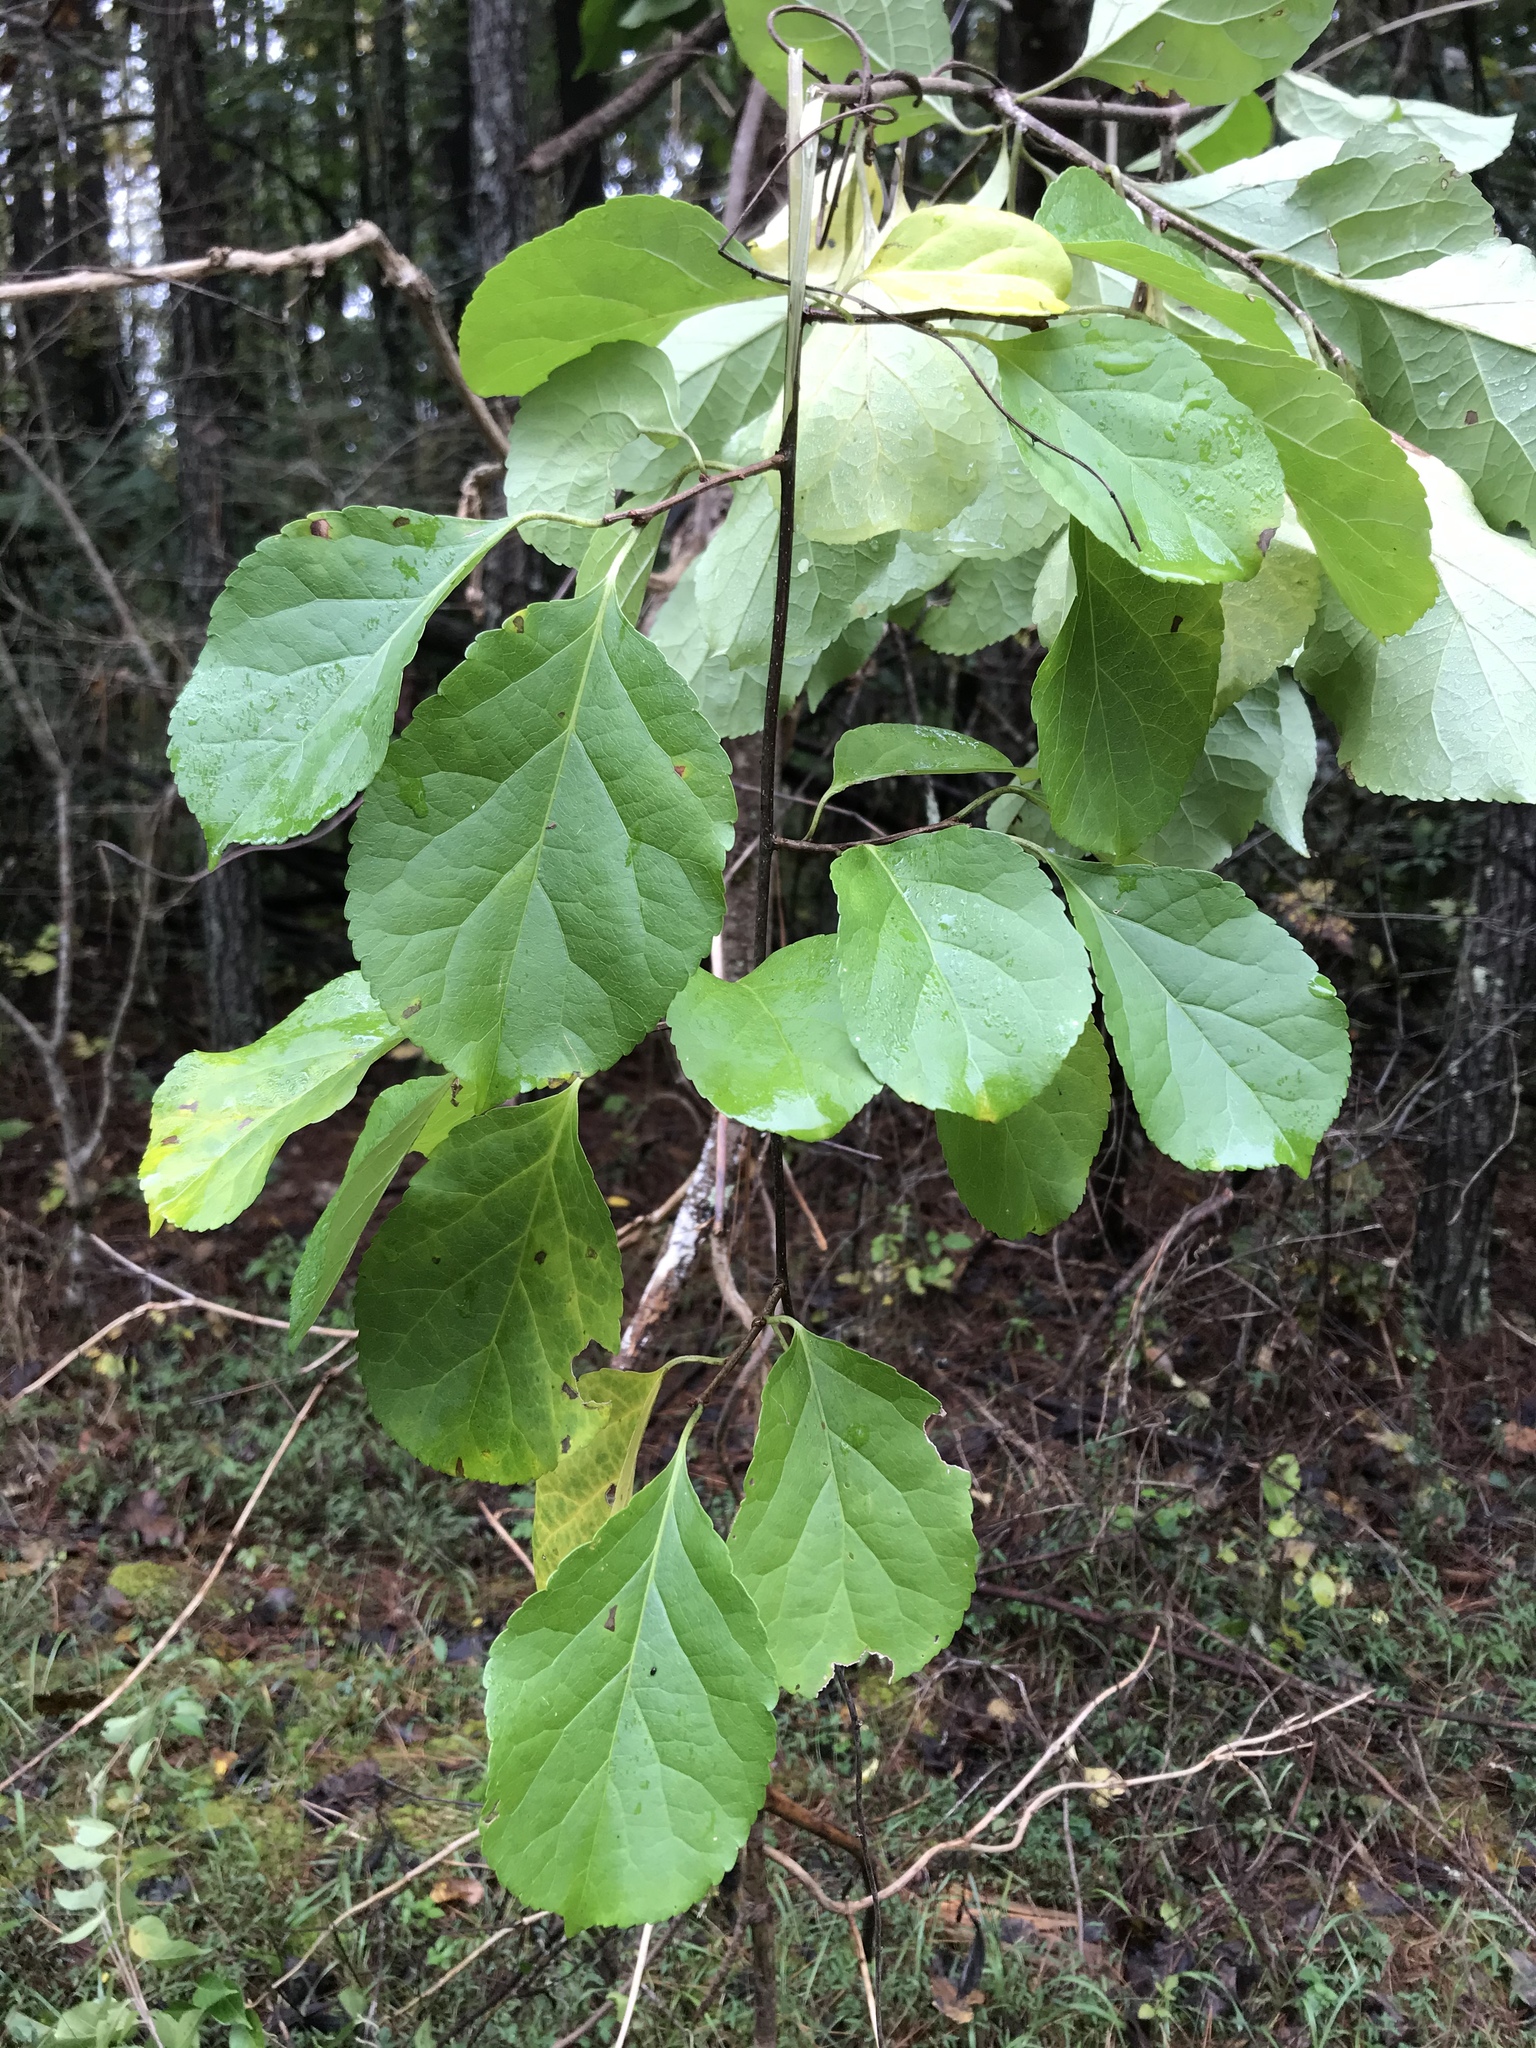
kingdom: Plantae
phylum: Tracheophyta
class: Magnoliopsida
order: Celastrales
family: Celastraceae
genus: Celastrus
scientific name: Celastrus orbiculatus
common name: Oriental bittersweet
